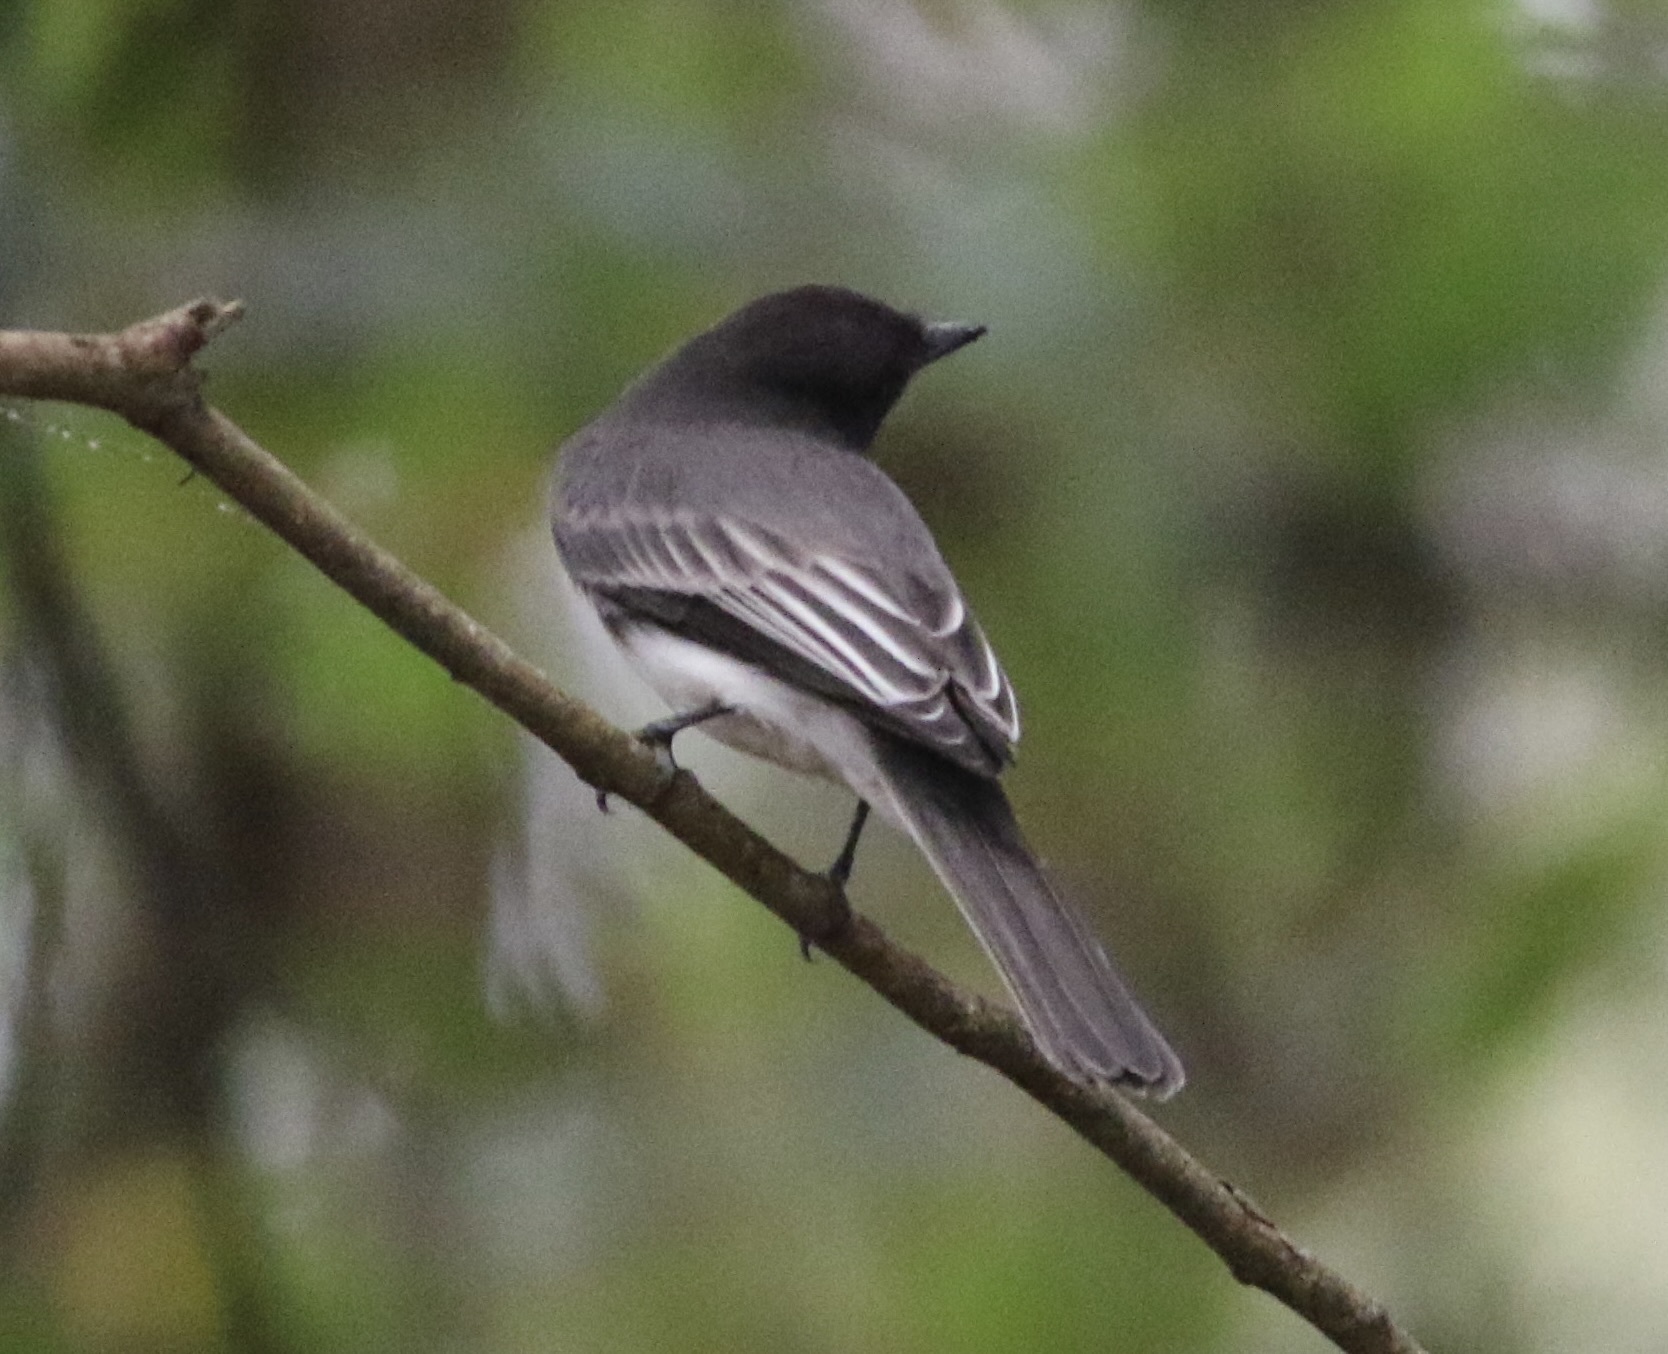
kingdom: Animalia
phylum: Chordata
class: Aves
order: Passeriformes
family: Tyrannidae
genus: Sayornis
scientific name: Sayornis nigricans
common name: Black phoebe
